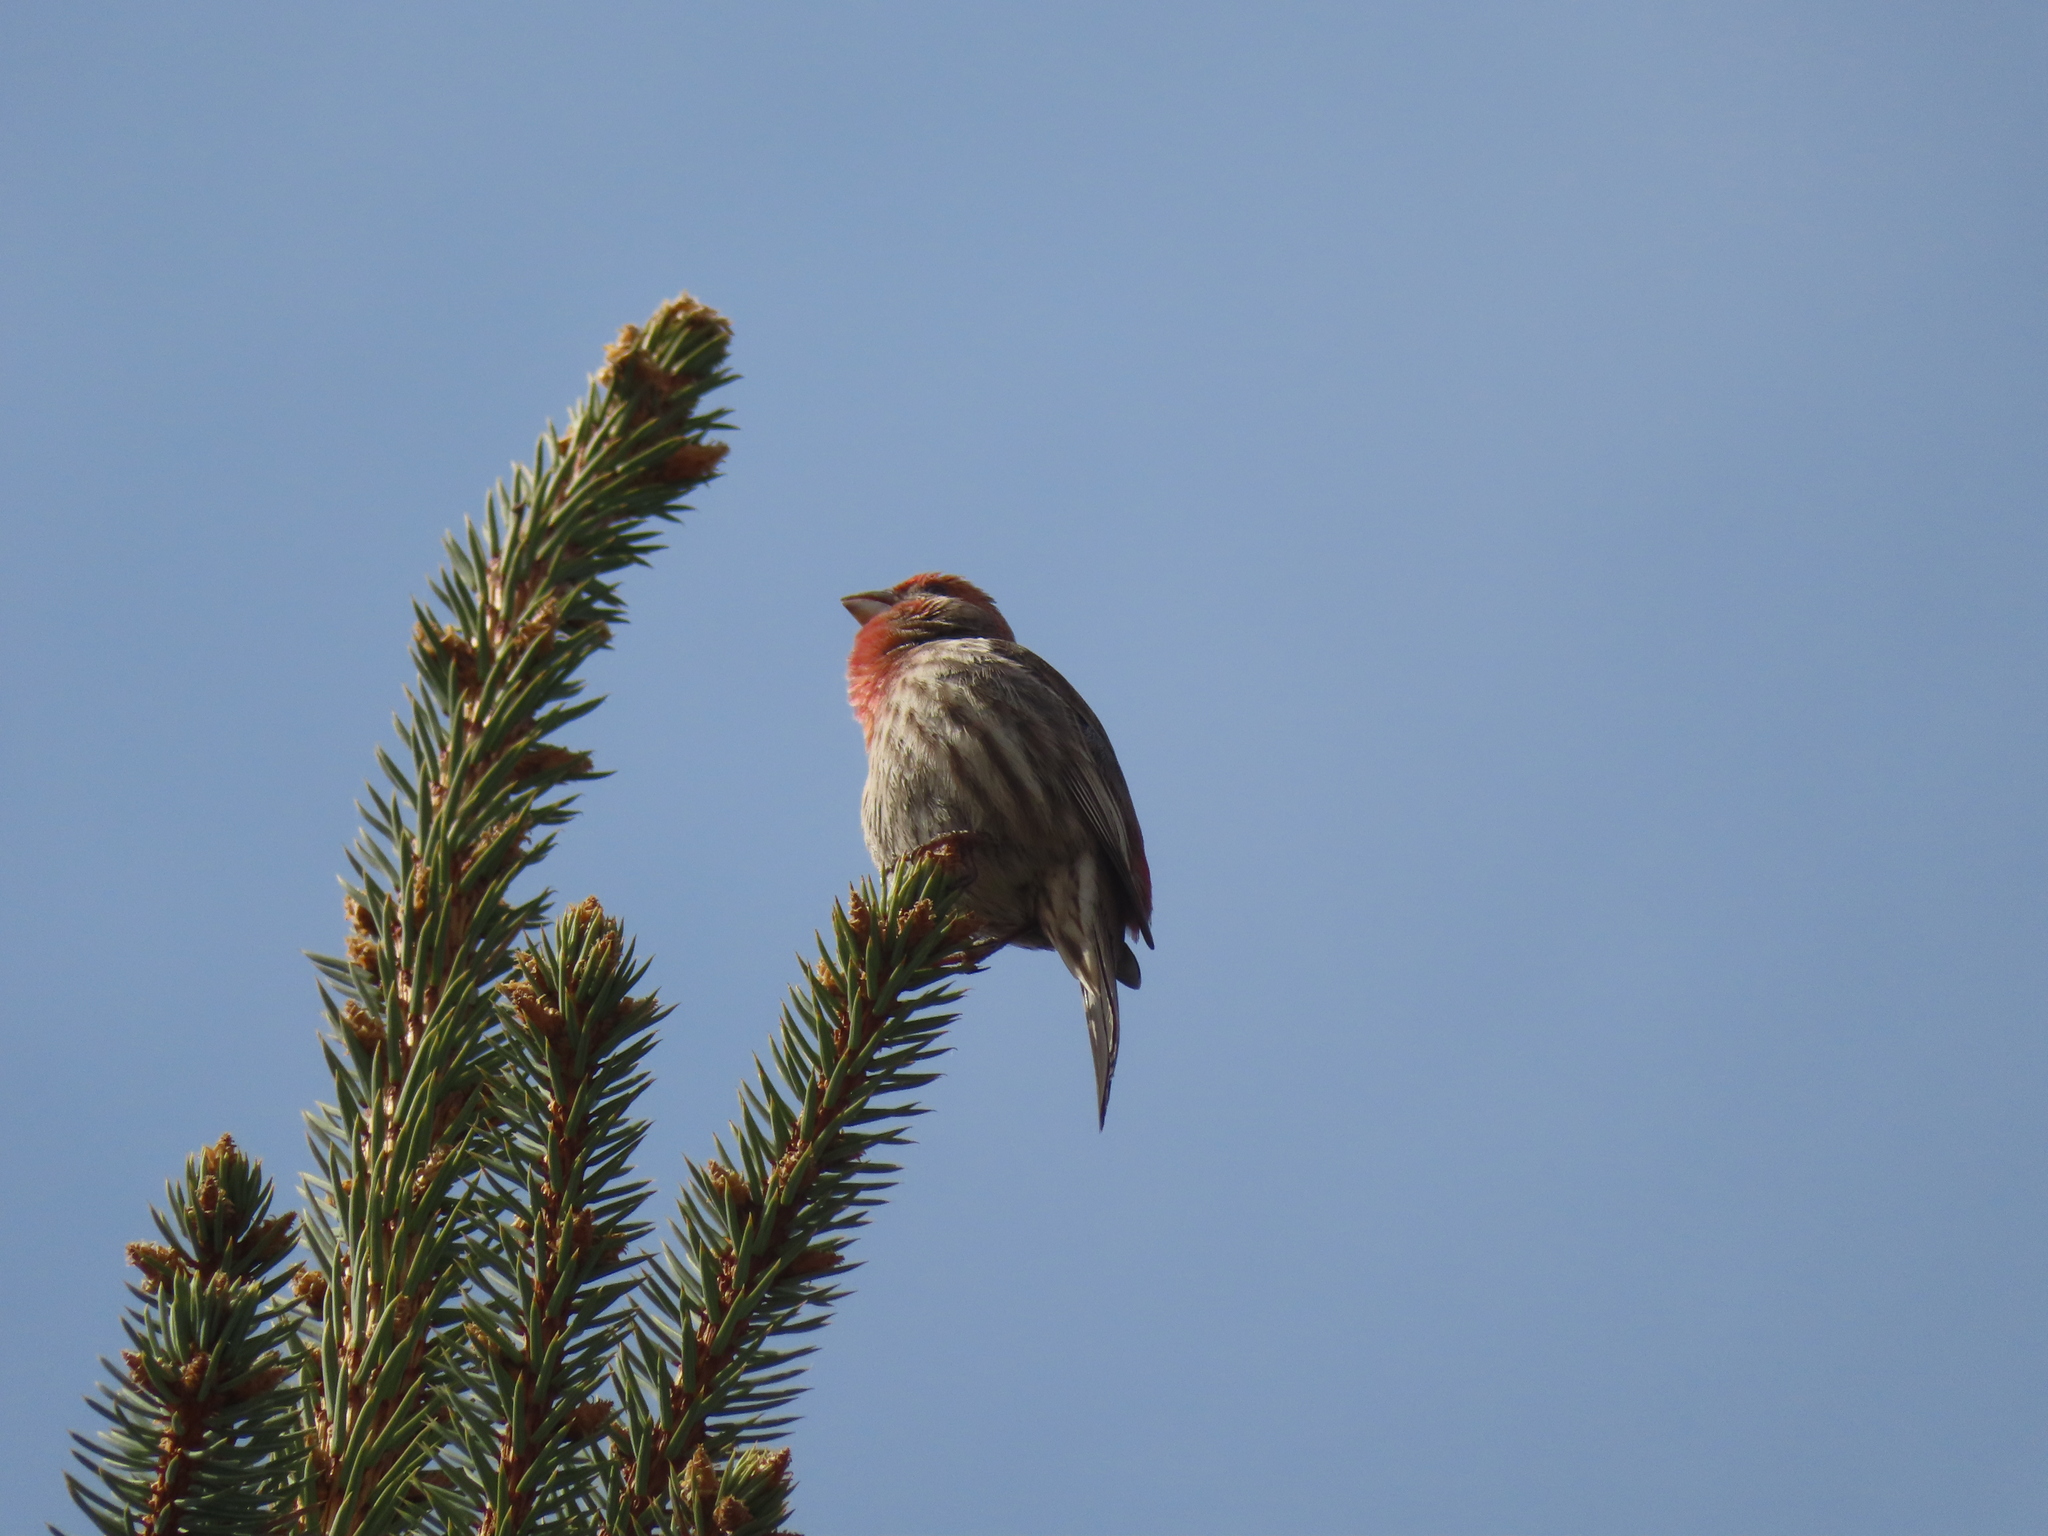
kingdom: Animalia
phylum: Chordata
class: Aves
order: Passeriformes
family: Fringillidae
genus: Haemorhous
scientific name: Haemorhous mexicanus
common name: House finch
